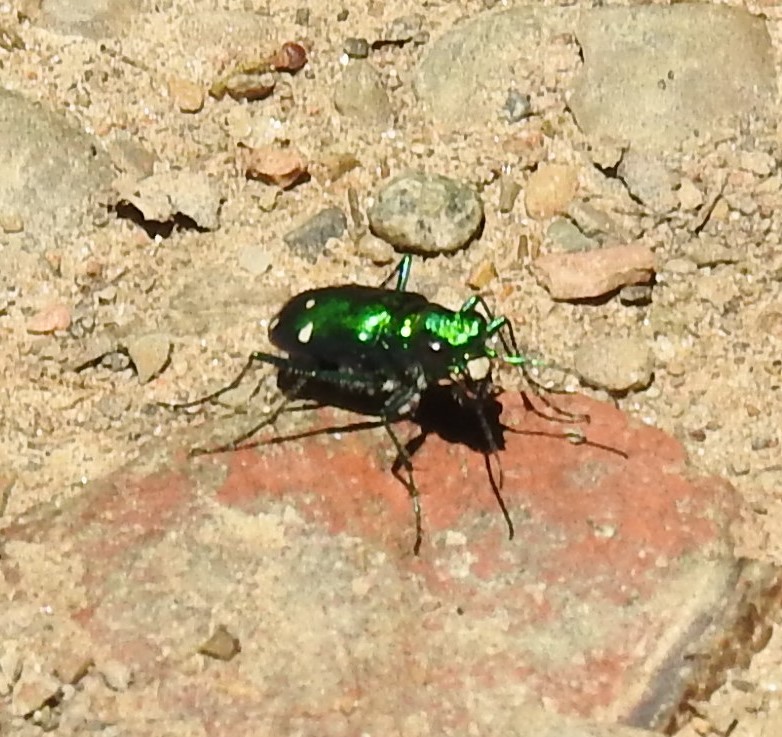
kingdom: Animalia
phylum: Arthropoda
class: Insecta
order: Coleoptera
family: Carabidae
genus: Cicindela
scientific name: Cicindela sexguttata
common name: Six-spotted tiger beetle
